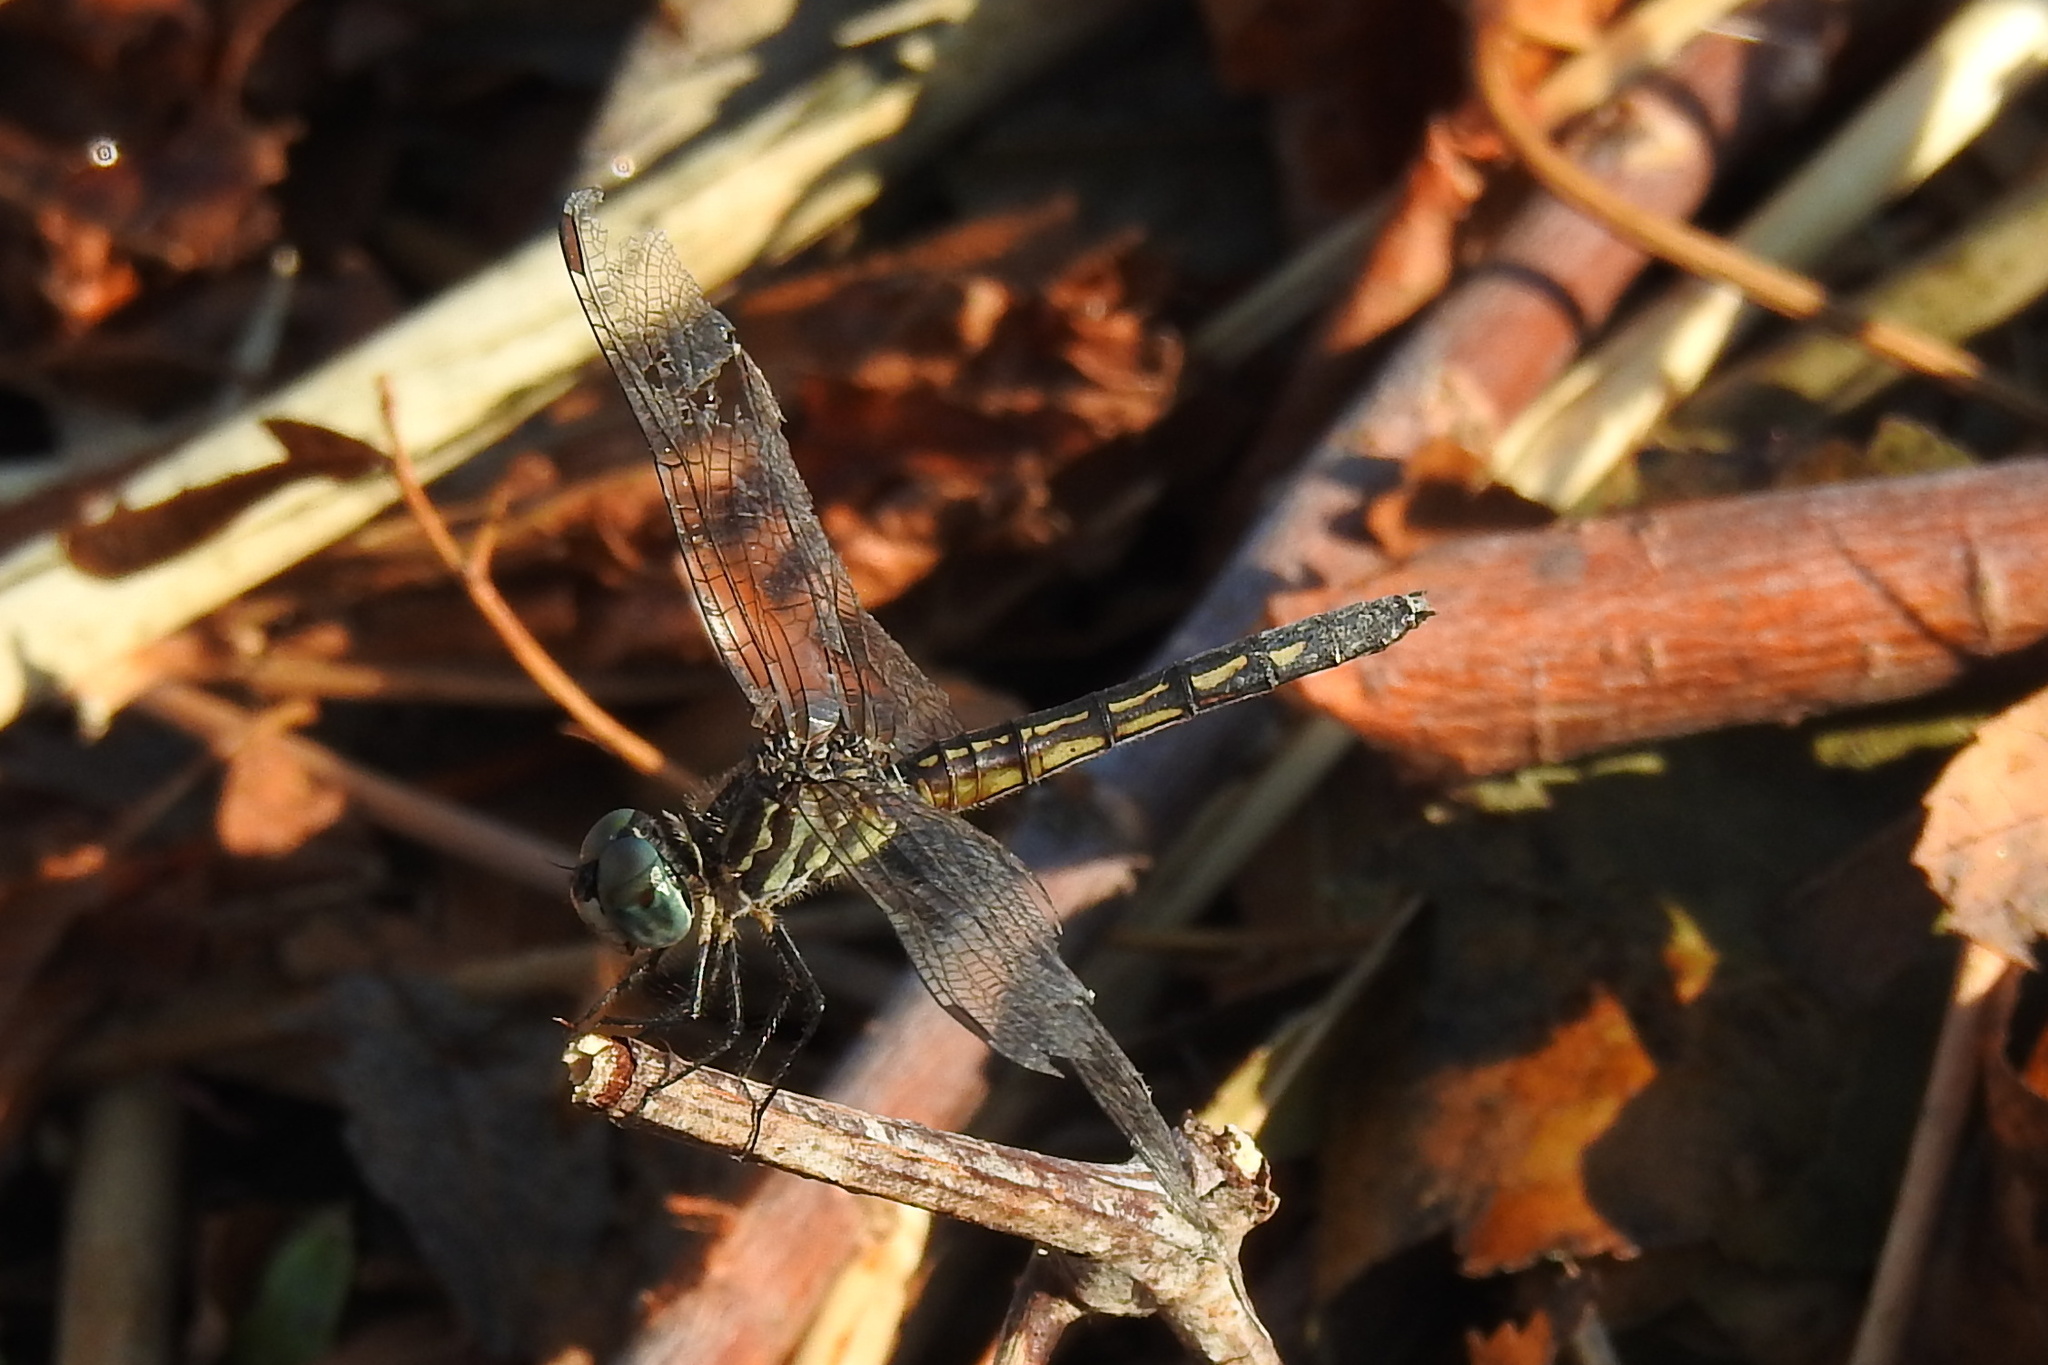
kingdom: Animalia
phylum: Arthropoda
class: Insecta
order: Odonata
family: Libellulidae
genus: Pachydiplax
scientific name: Pachydiplax longipennis
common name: Blue dasher
